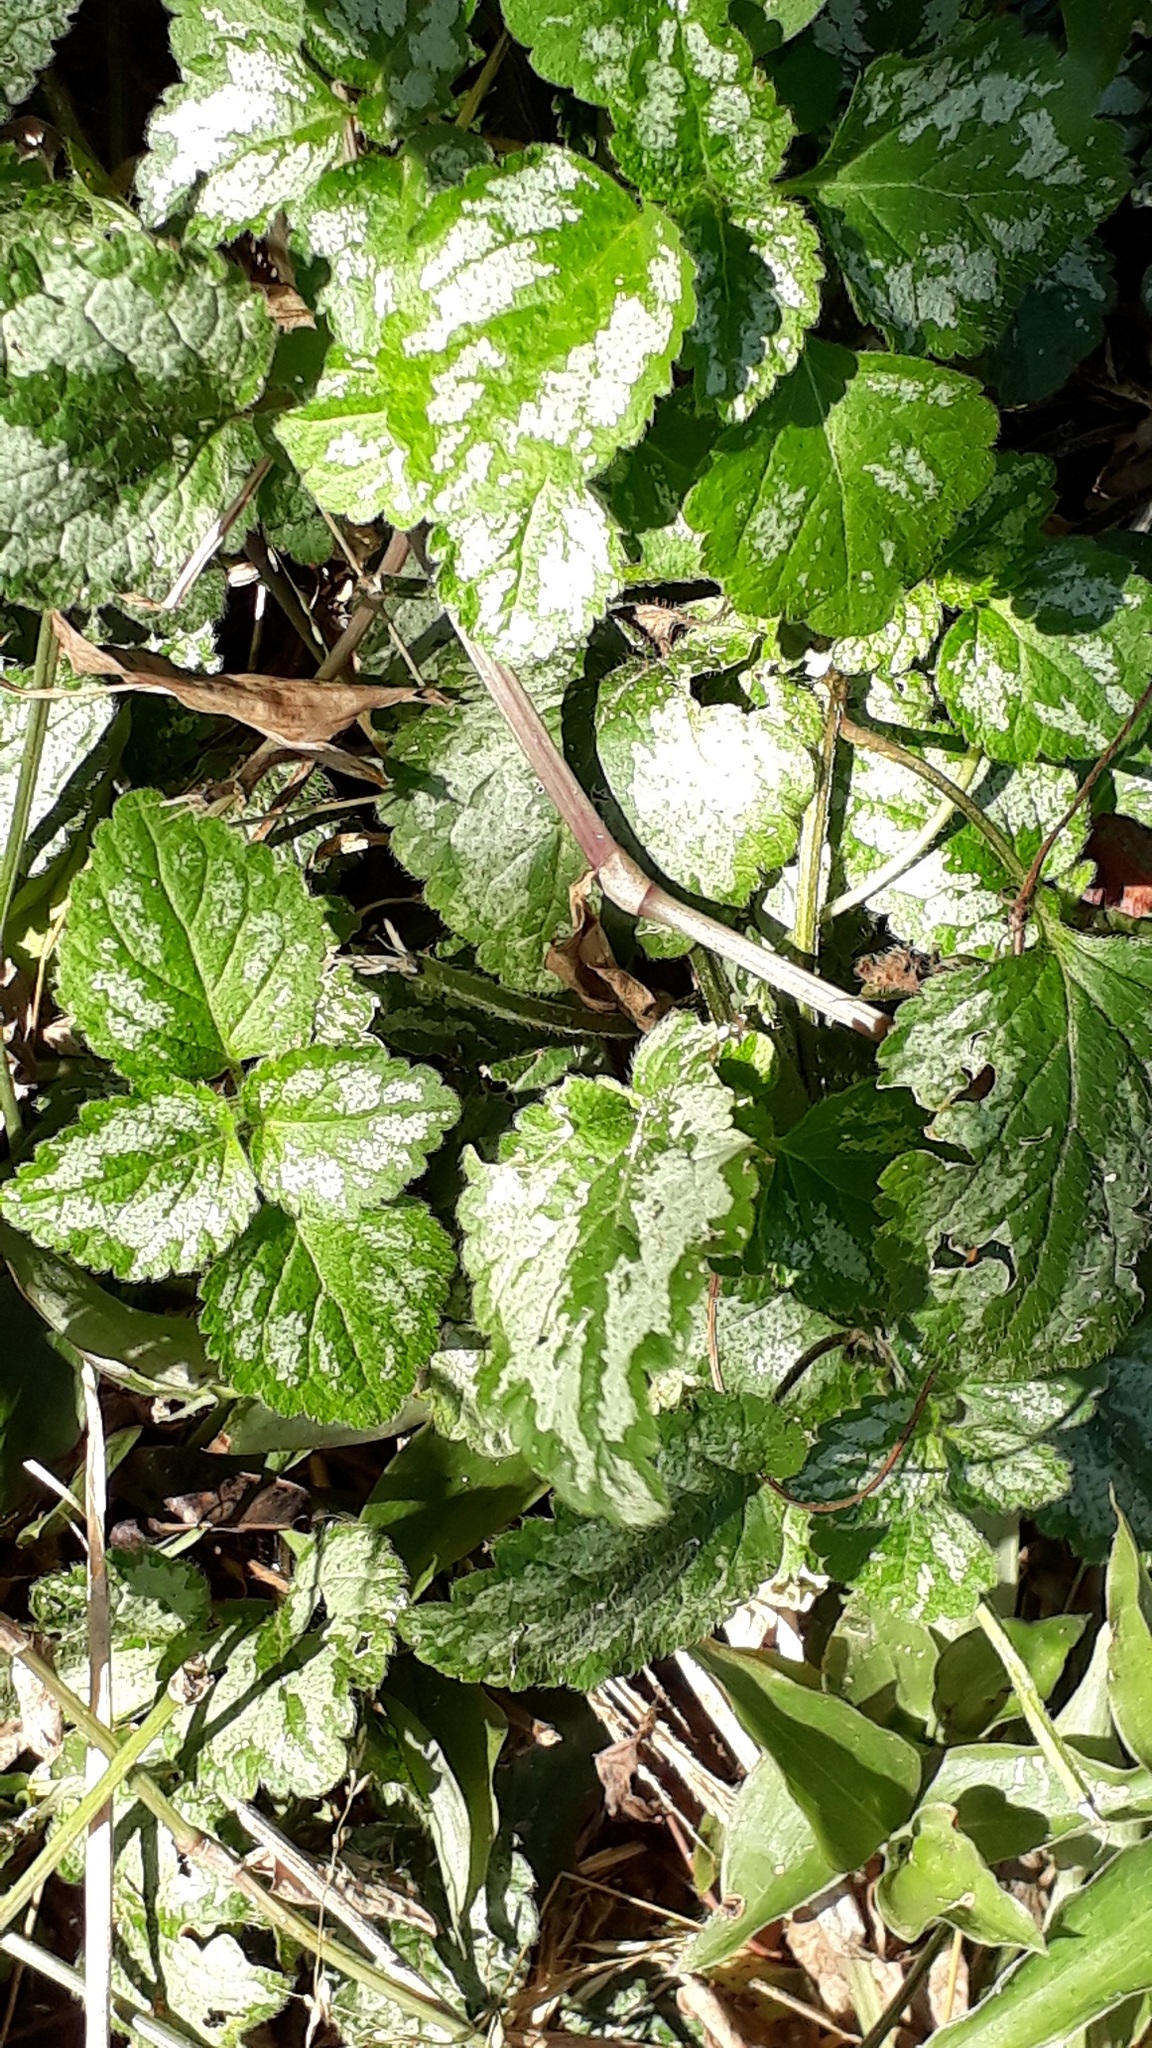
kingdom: Plantae
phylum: Tracheophyta
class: Magnoliopsida
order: Lamiales
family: Lamiaceae
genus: Lamium
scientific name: Lamium galeobdolon
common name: Yellow archangel
